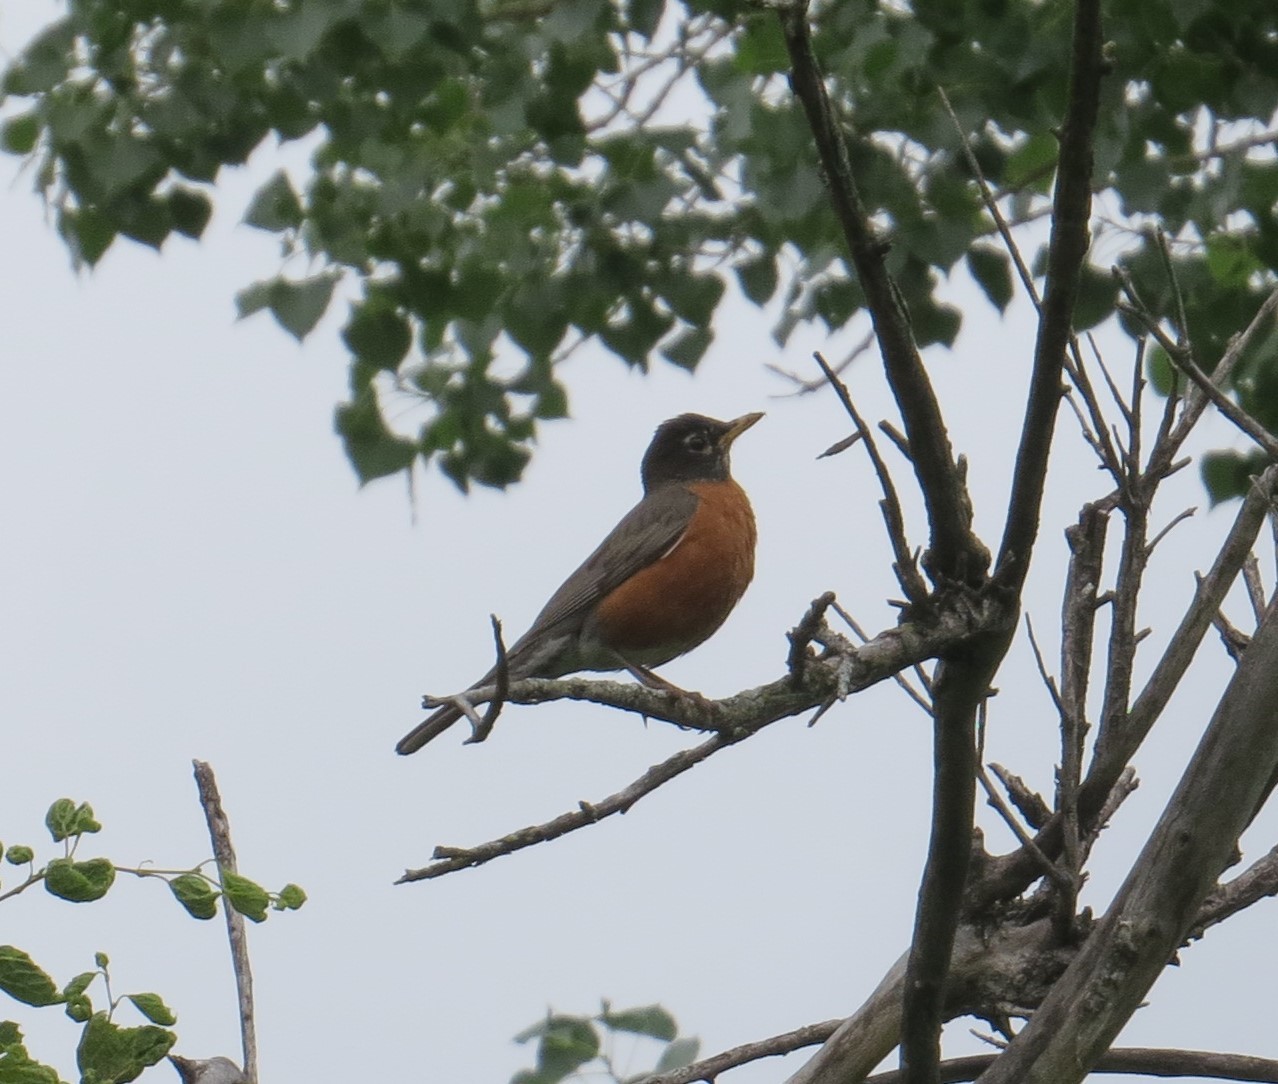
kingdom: Animalia
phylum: Chordata
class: Aves
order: Passeriformes
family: Turdidae
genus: Turdus
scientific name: Turdus migratorius
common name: American robin
